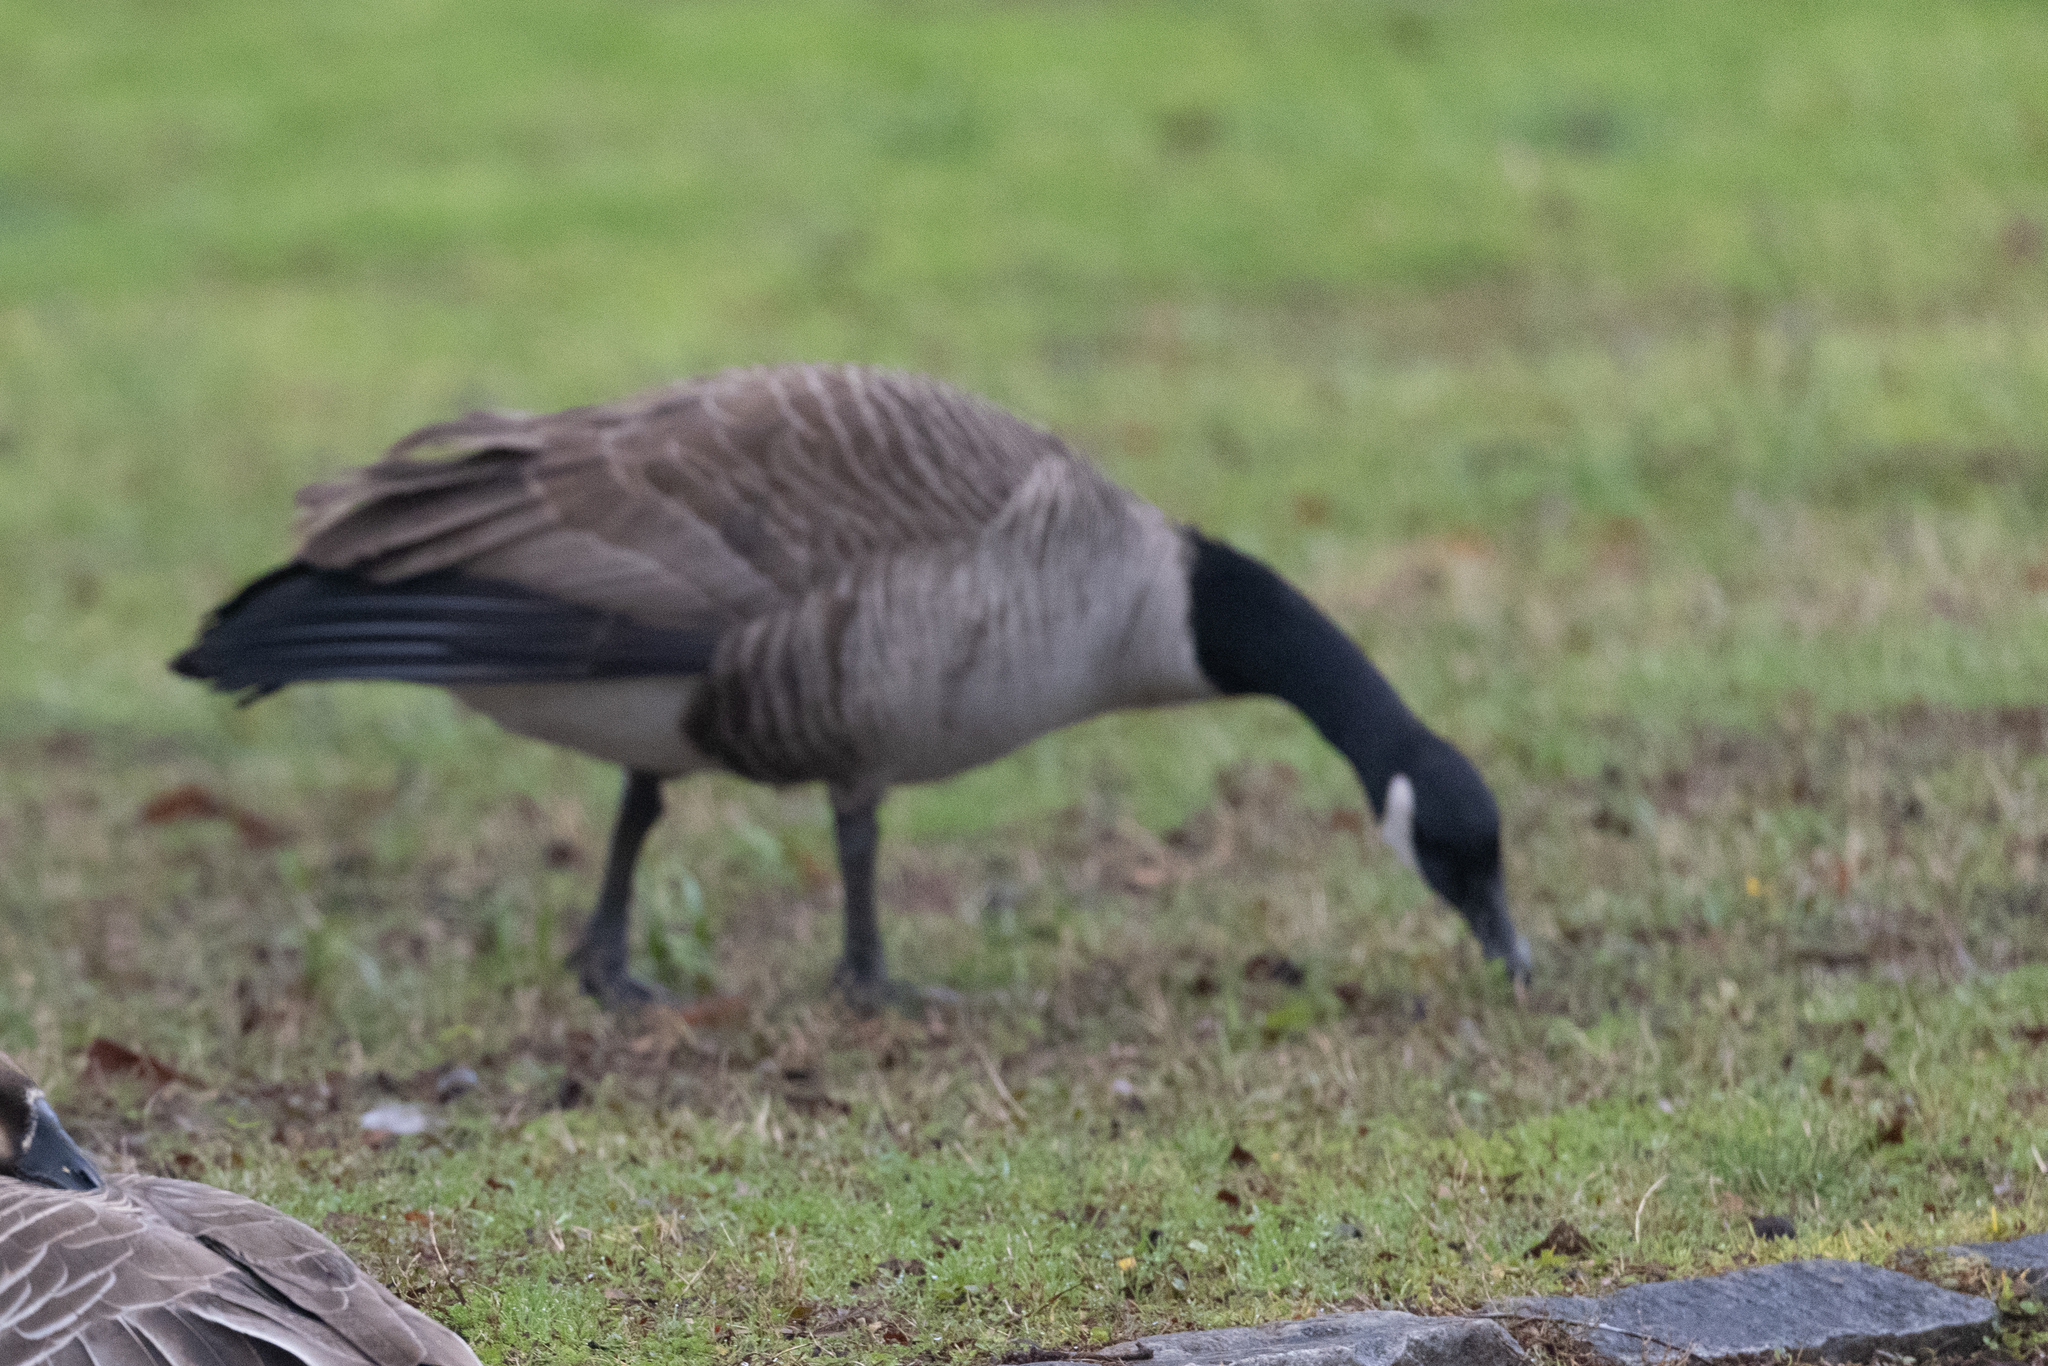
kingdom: Animalia
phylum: Chordata
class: Aves
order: Anseriformes
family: Anatidae
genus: Branta
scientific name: Branta canadensis
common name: Canada goose
